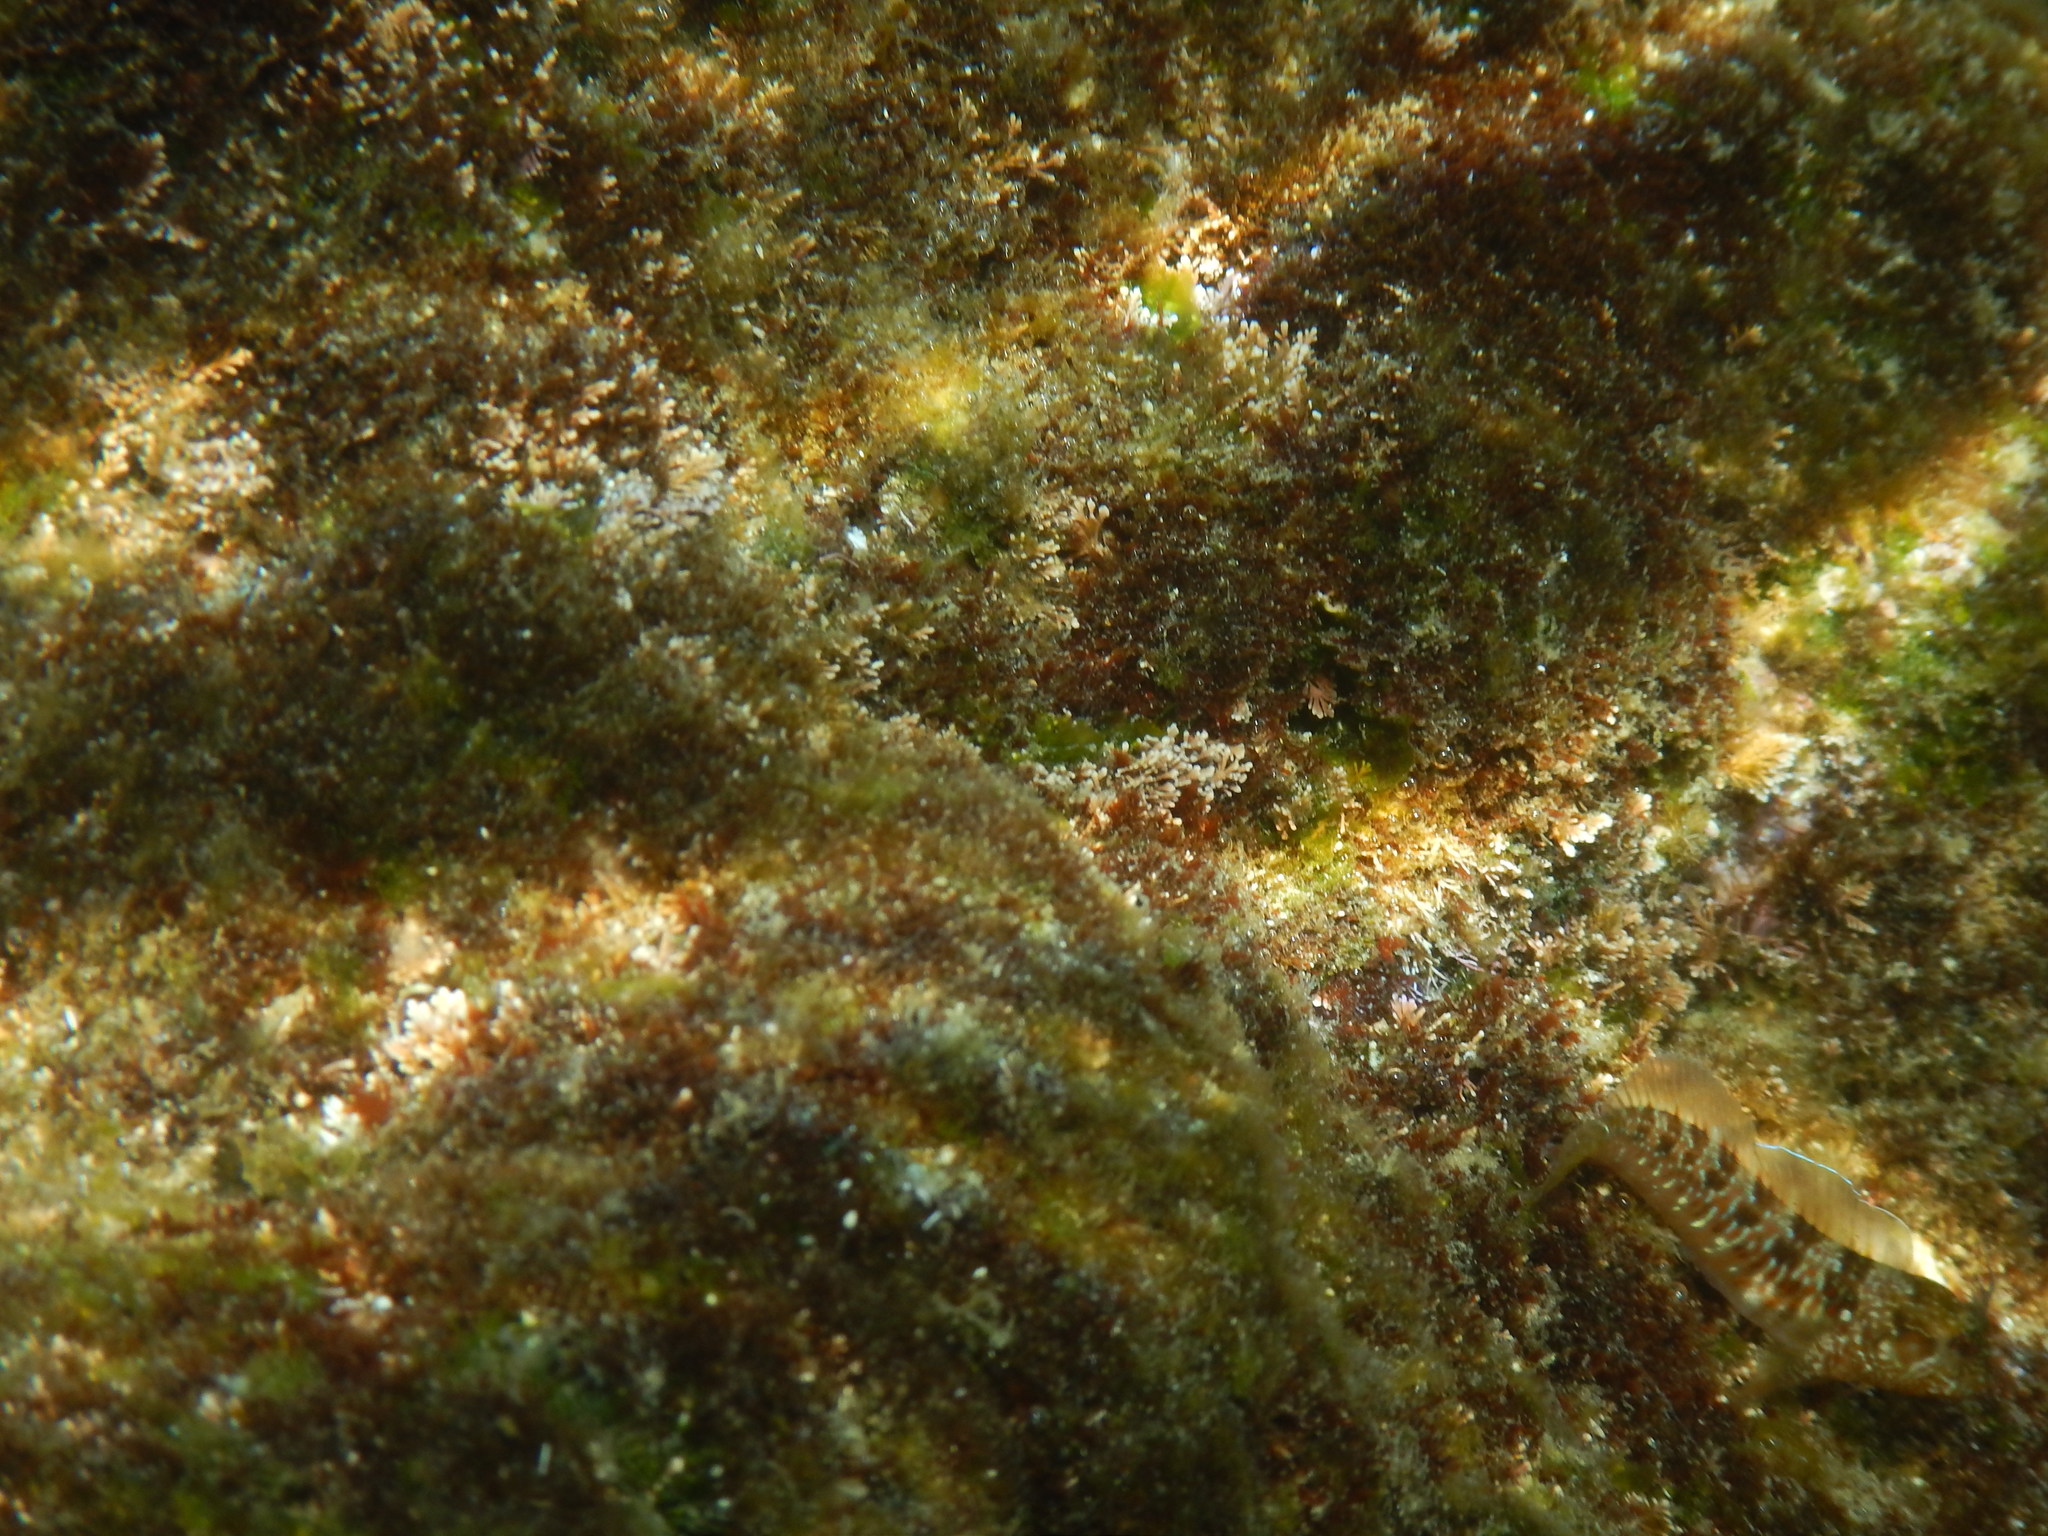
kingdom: Animalia
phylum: Chordata
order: Perciformes
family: Blenniidae
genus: Parablennius
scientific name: Parablennius incognitus
